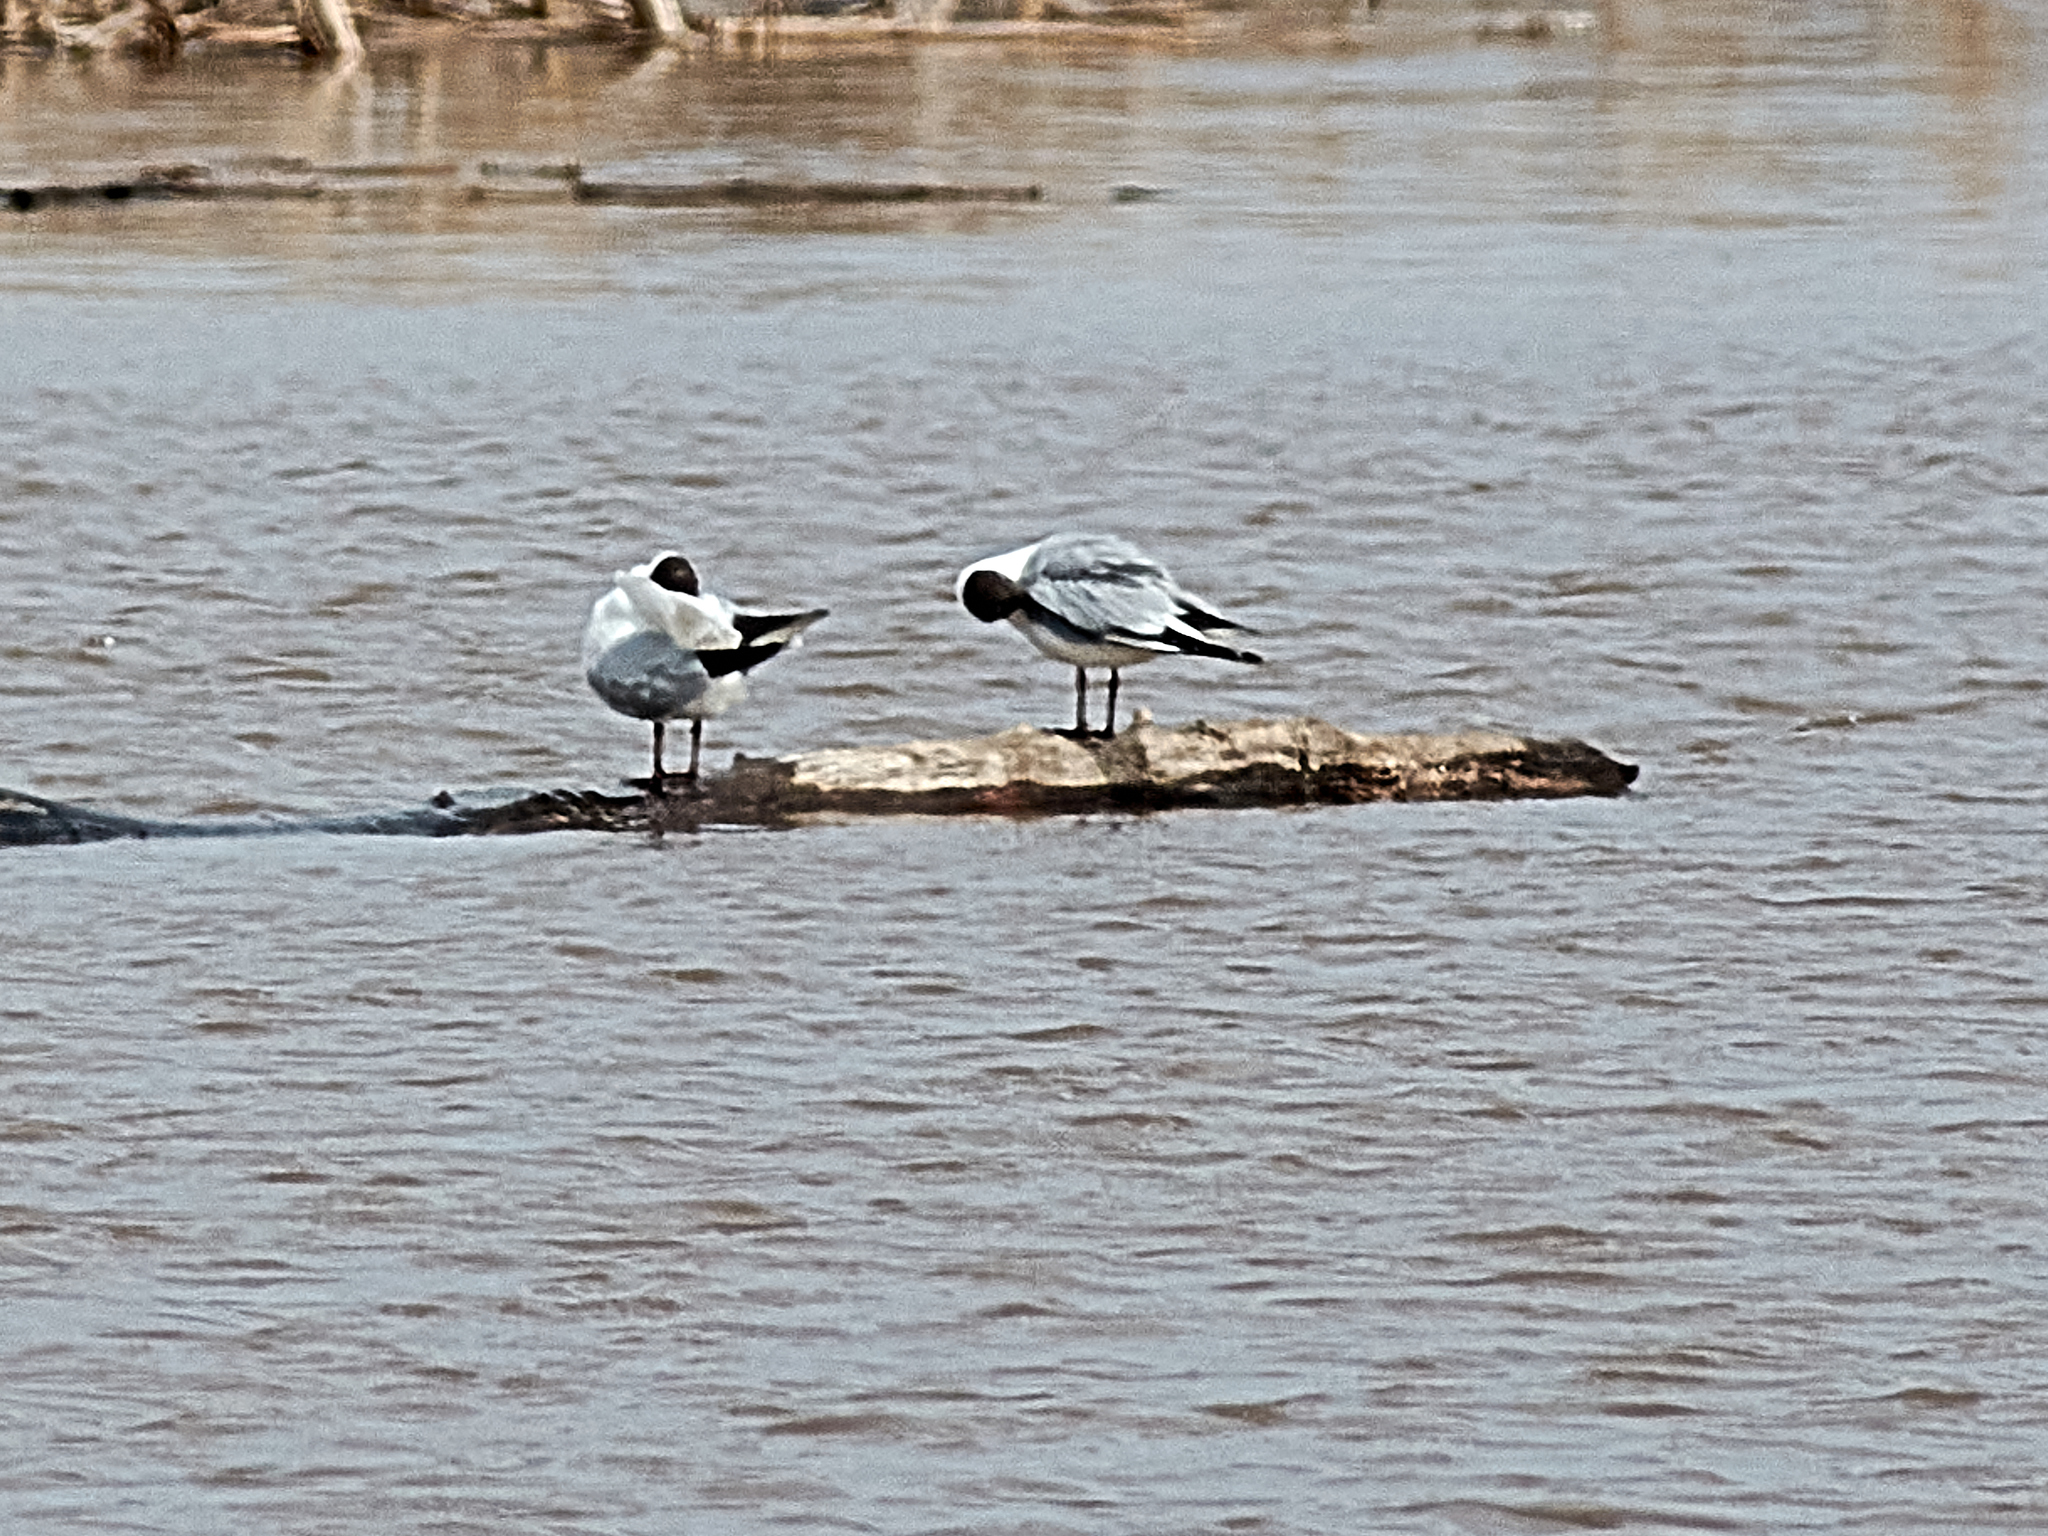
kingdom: Animalia
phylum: Chordata
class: Aves
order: Charadriiformes
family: Laridae
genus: Chroicocephalus
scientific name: Chroicocephalus ridibundus
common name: Black-headed gull
